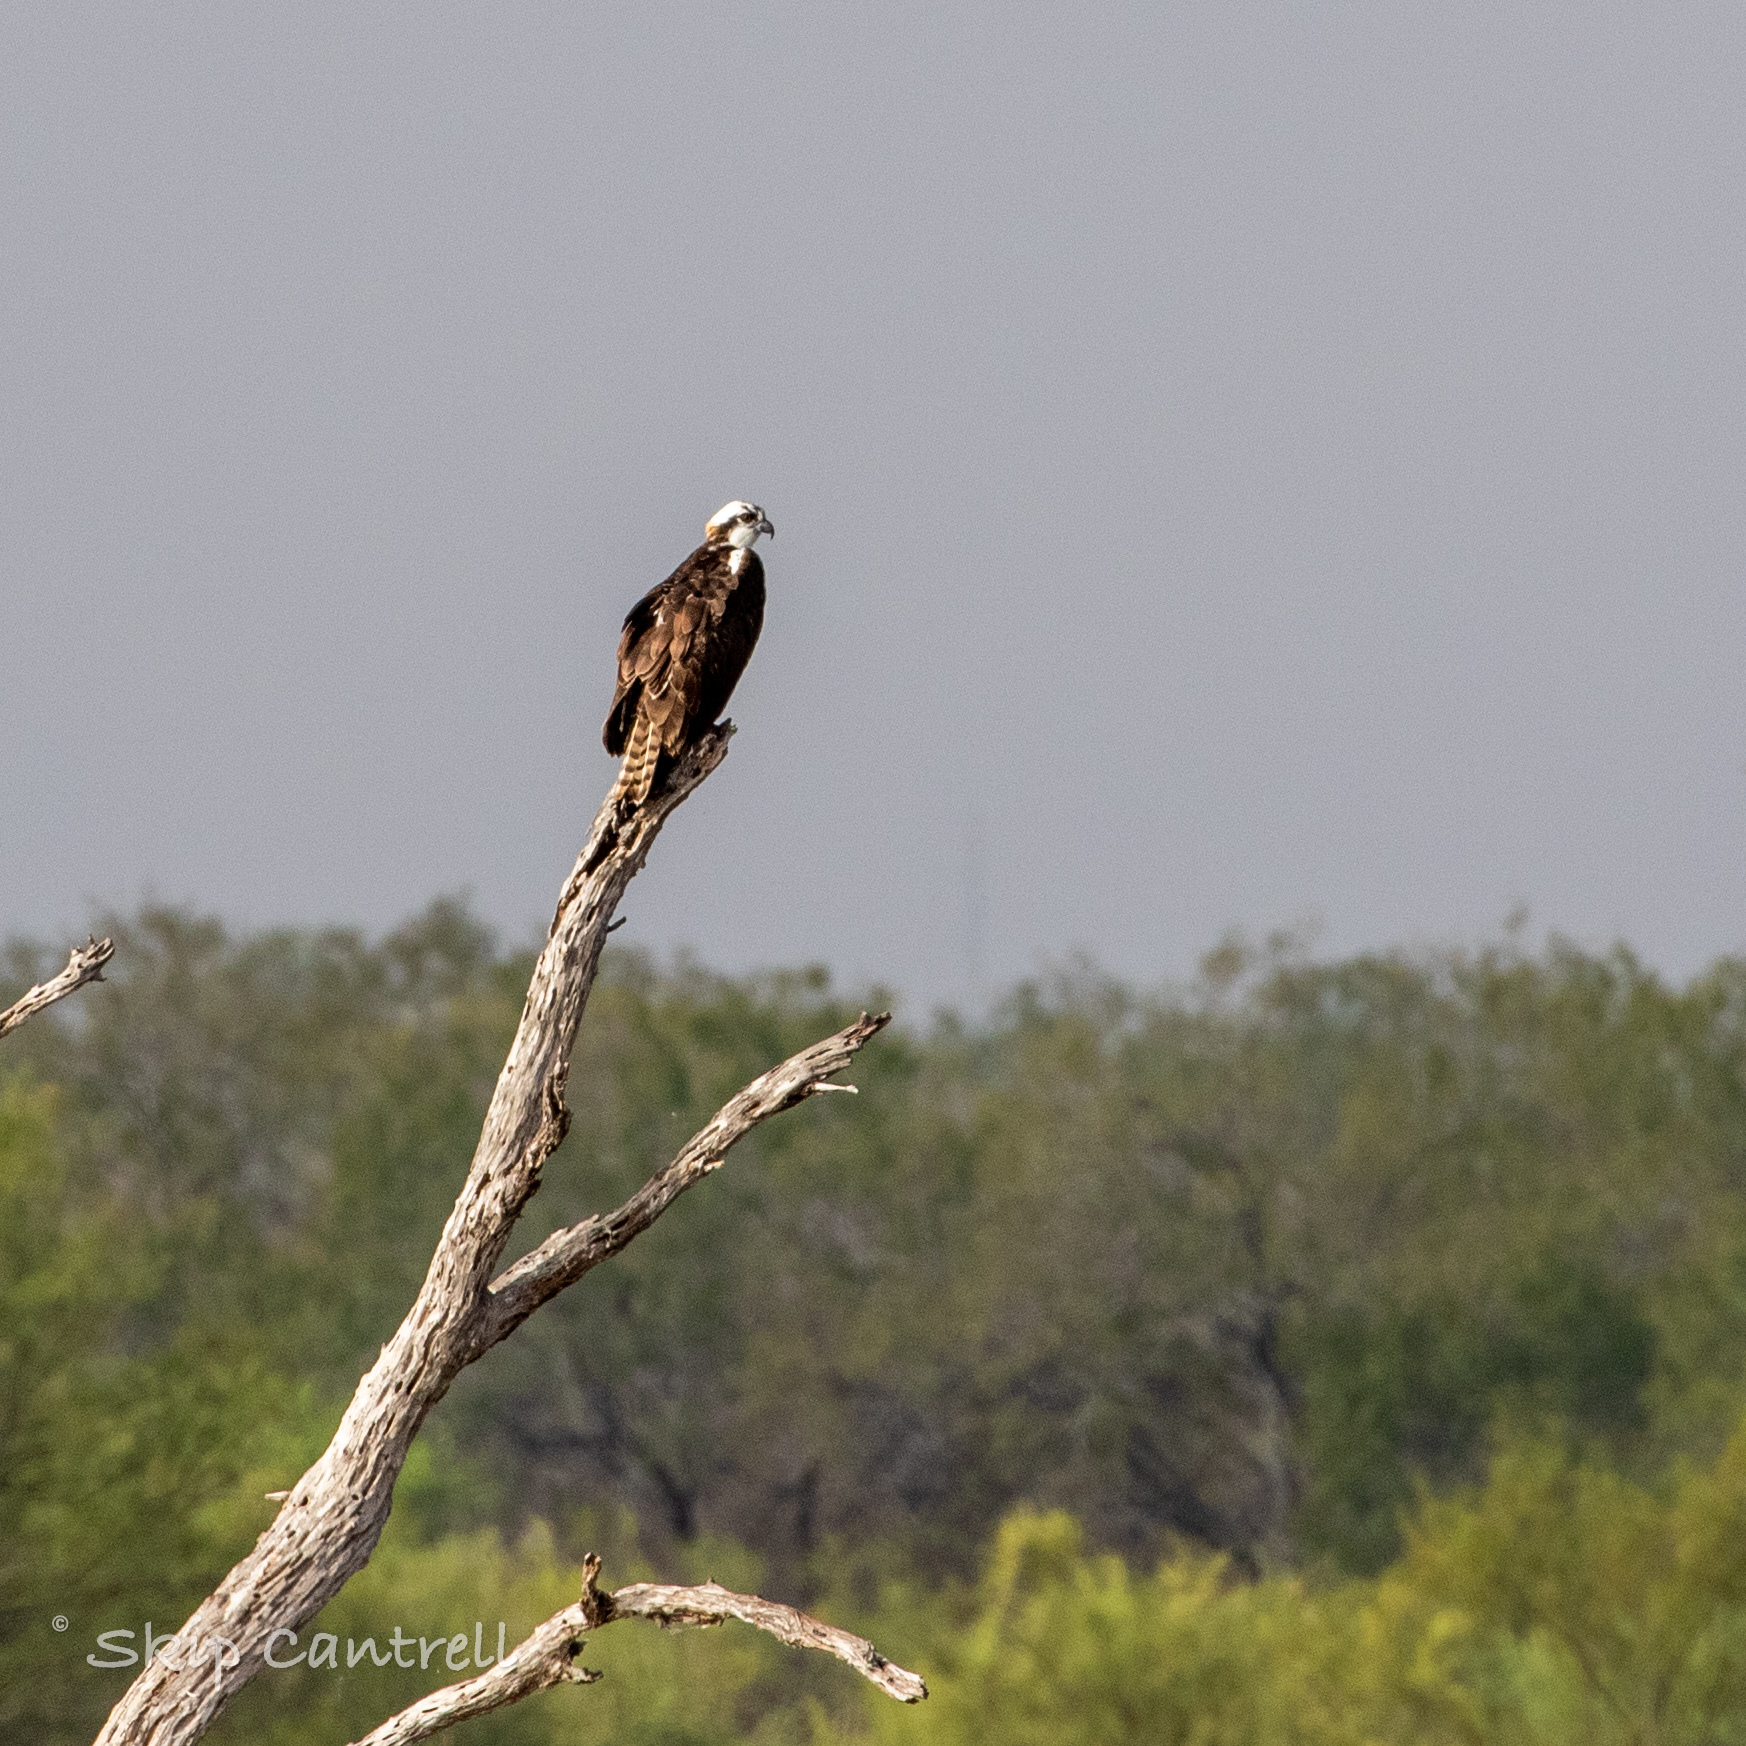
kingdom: Animalia
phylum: Chordata
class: Aves
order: Accipitriformes
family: Pandionidae
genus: Pandion
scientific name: Pandion haliaetus
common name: Osprey
